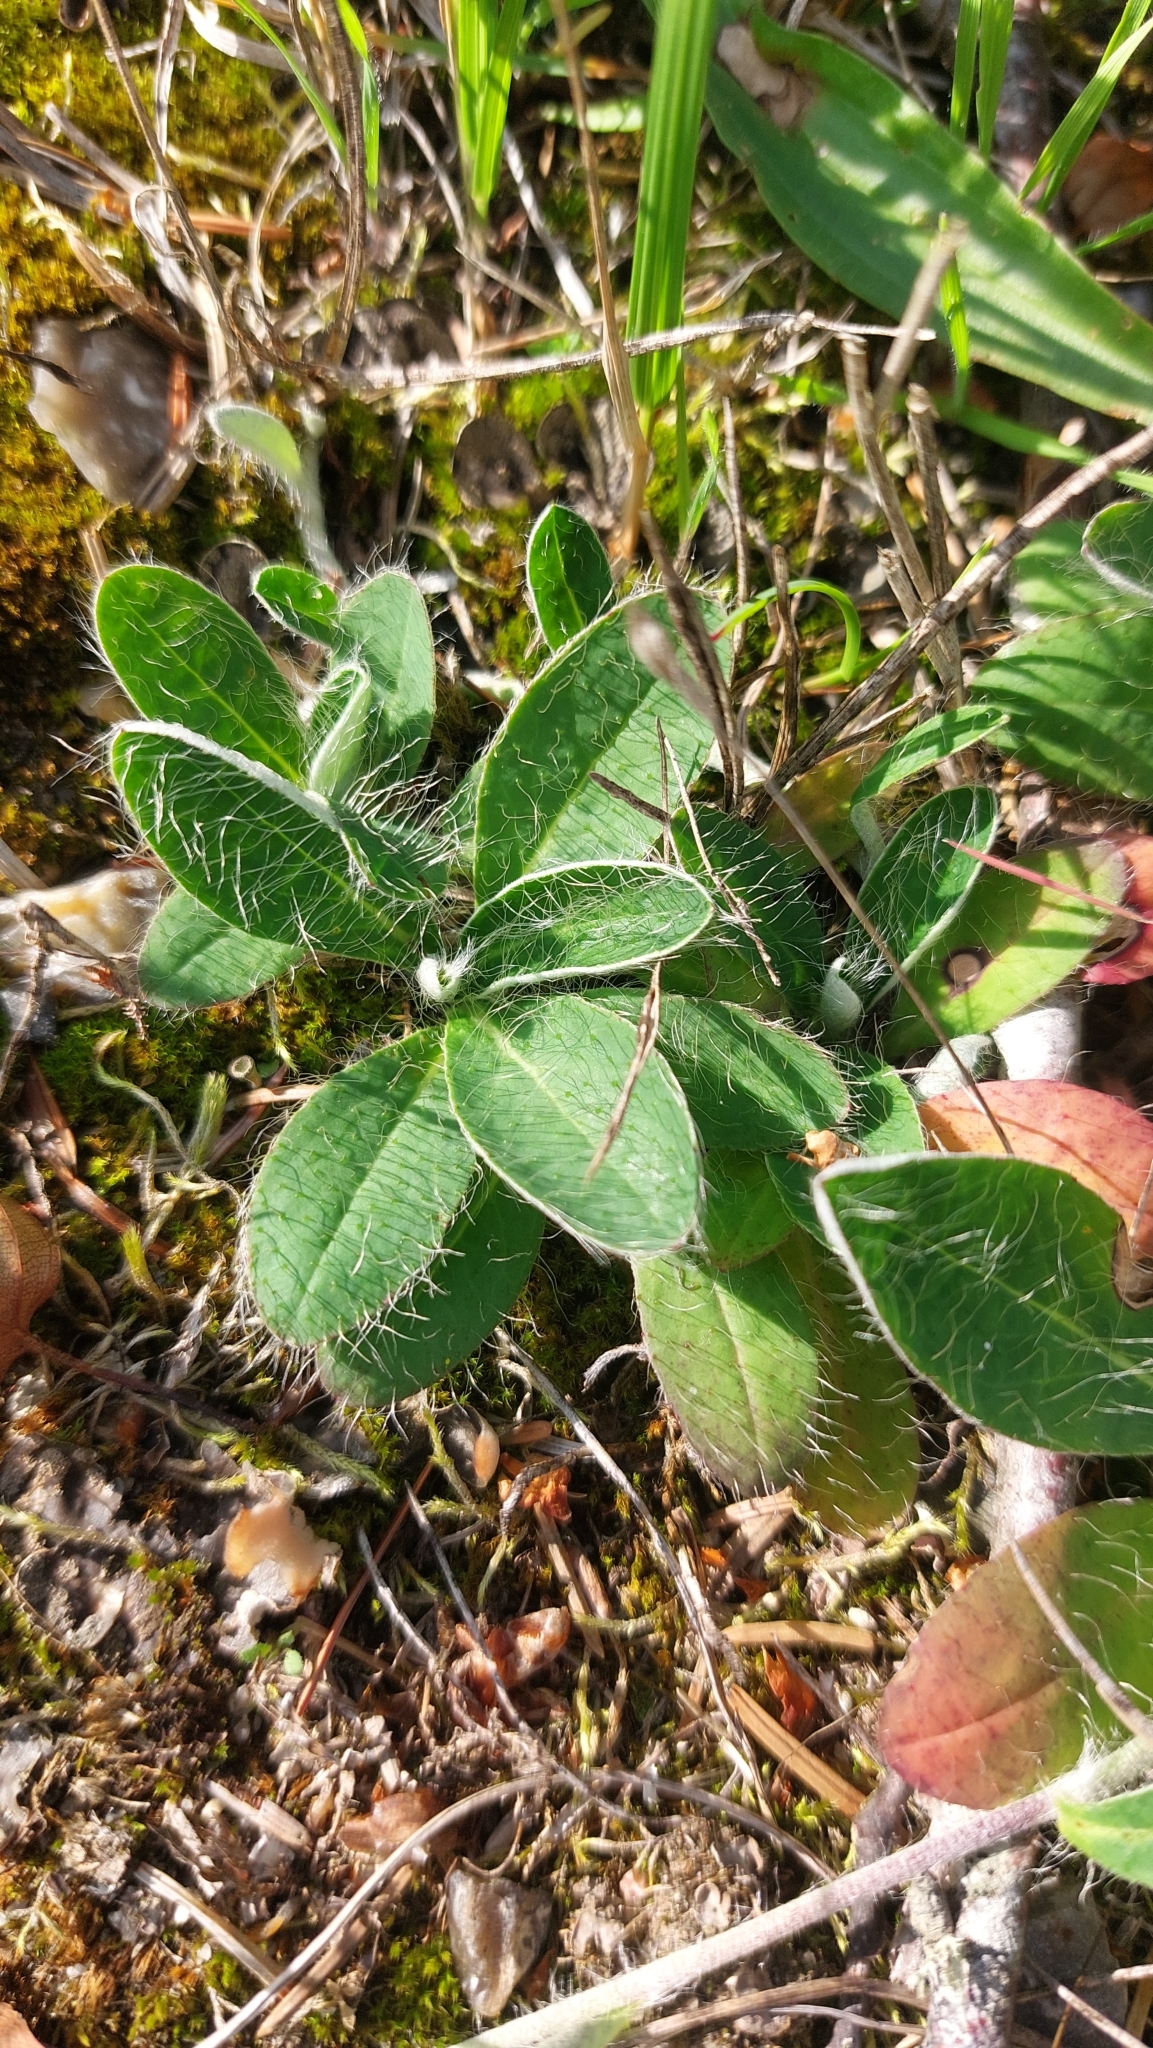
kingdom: Plantae
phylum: Tracheophyta
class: Magnoliopsida
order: Asterales
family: Asteraceae
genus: Pilosella
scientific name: Pilosella officinarum
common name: Mouse-ear hawkweed
